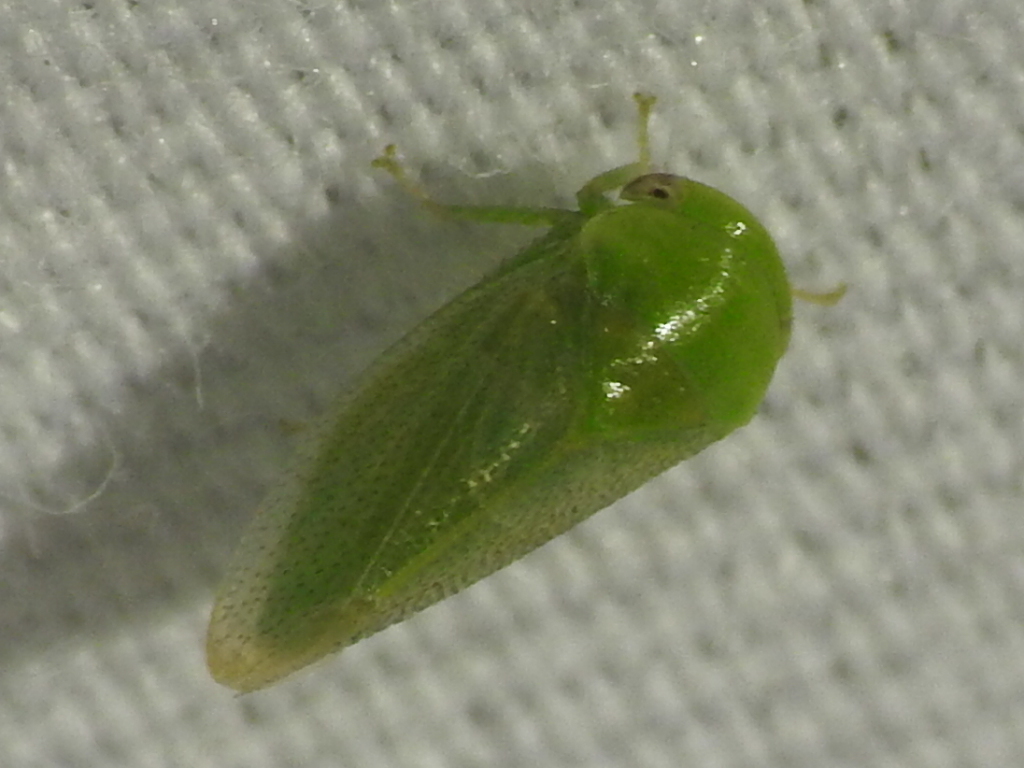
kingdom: Animalia
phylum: Arthropoda
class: Insecta
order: Hemiptera
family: Cicadellidae
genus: Penestragania
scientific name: Penestragania robusta
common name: Robust leafhopper
